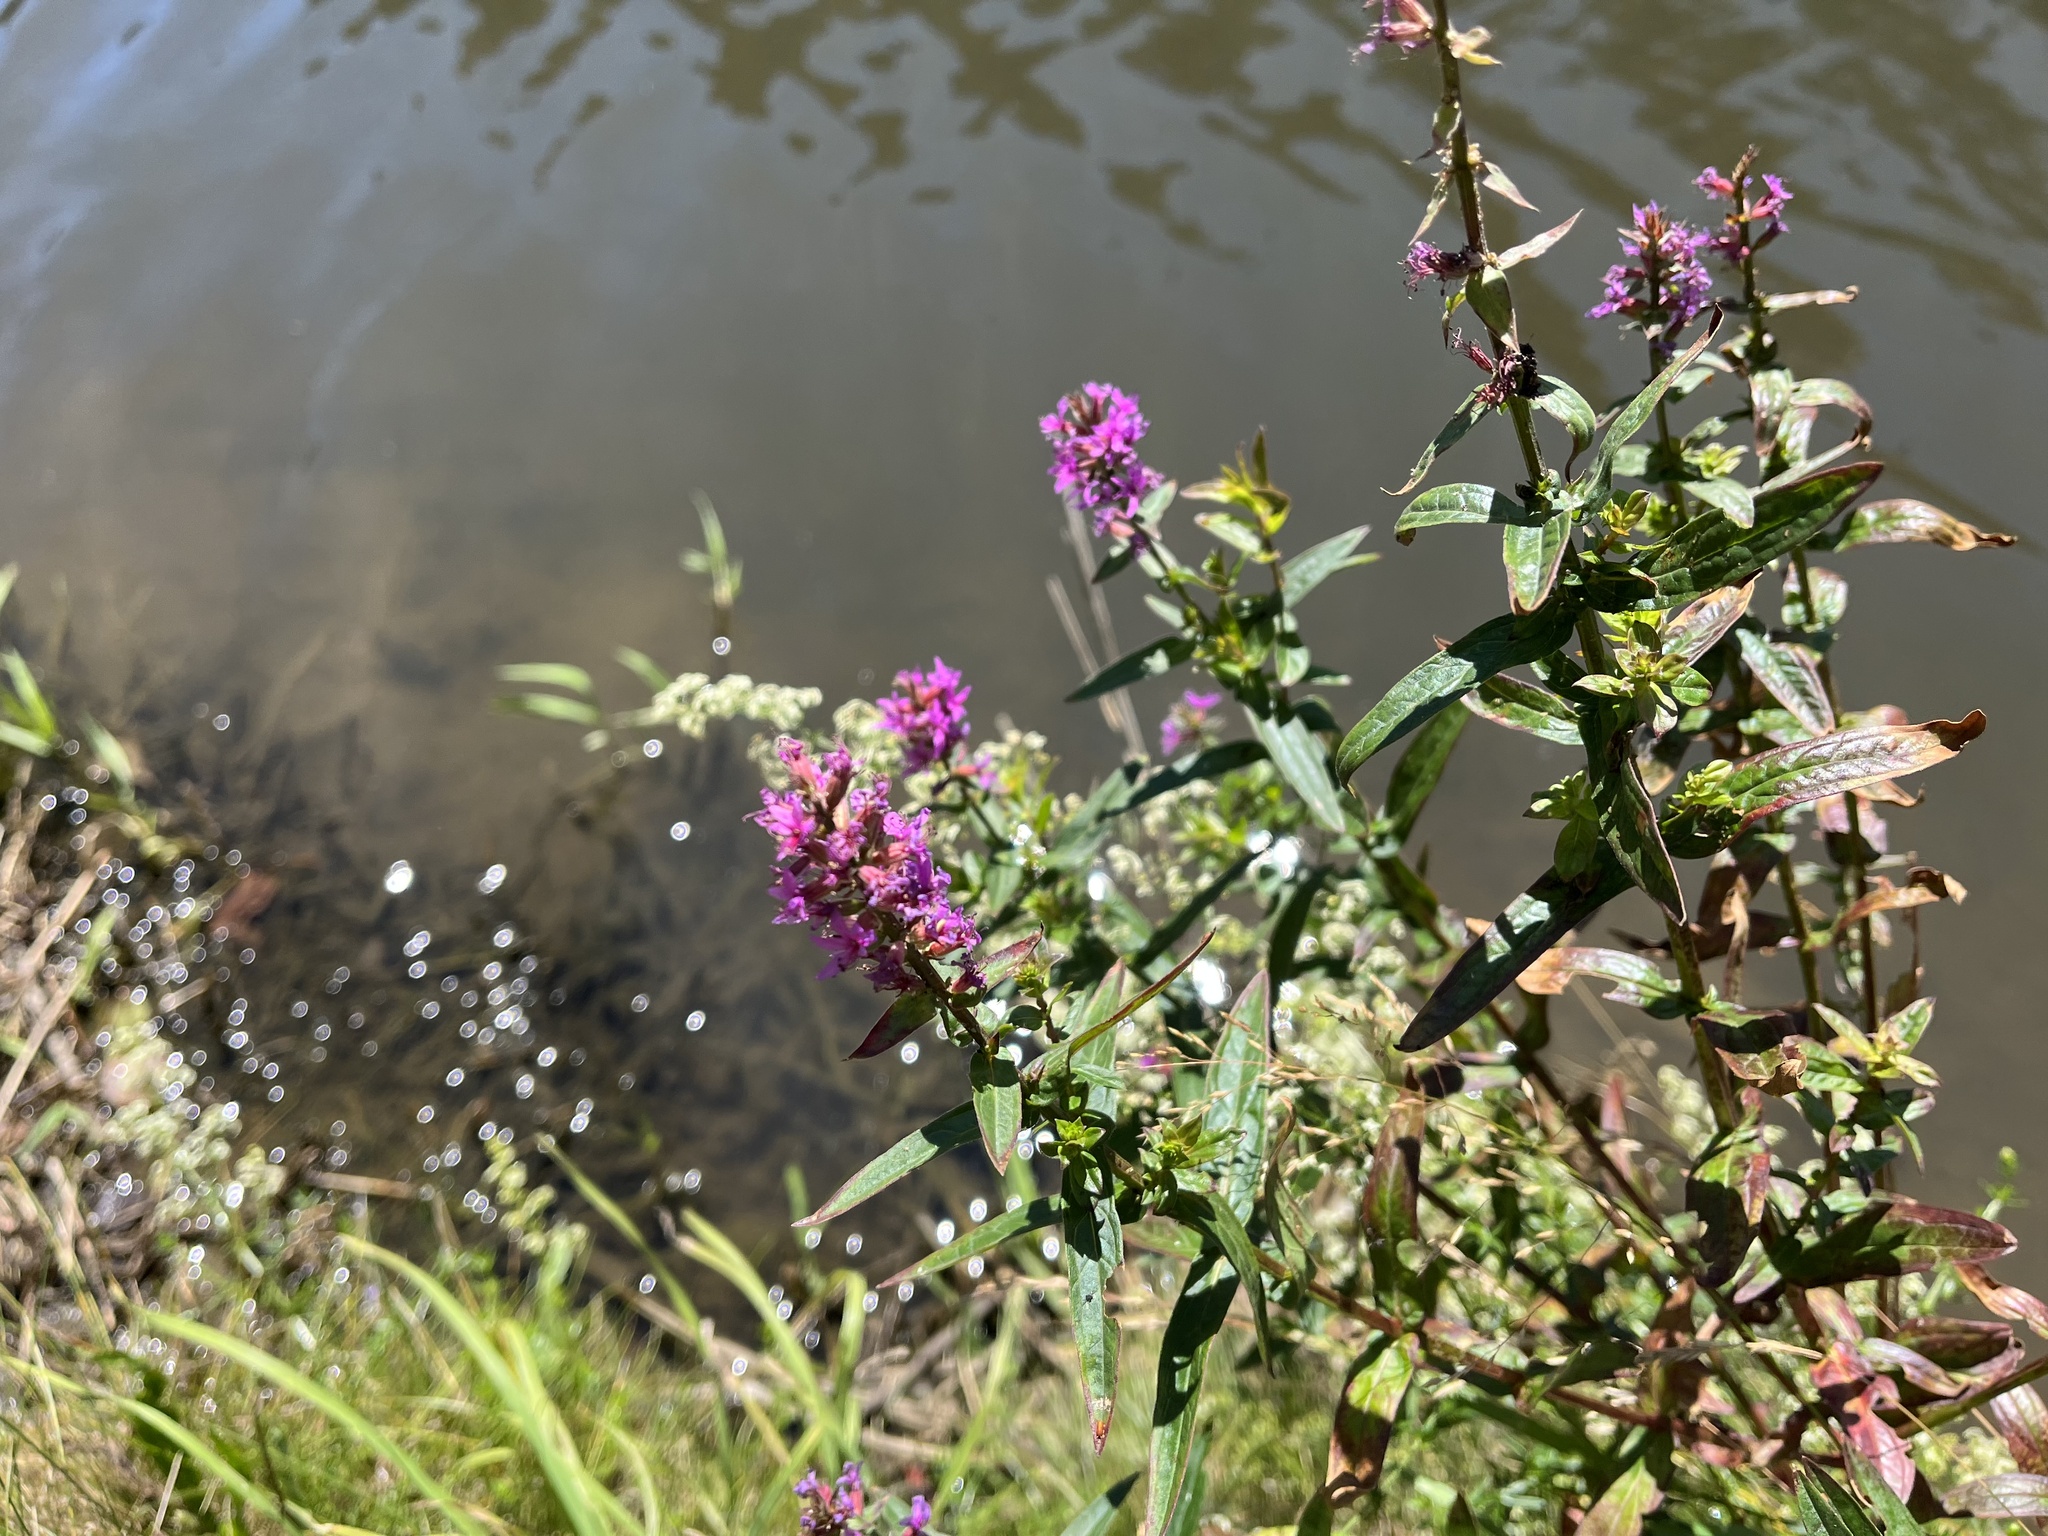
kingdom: Plantae
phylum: Tracheophyta
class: Magnoliopsida
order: Myrtales
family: Lythraceae
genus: Lythrum
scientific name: Lythrum salicaria
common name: Purple loosestrife
